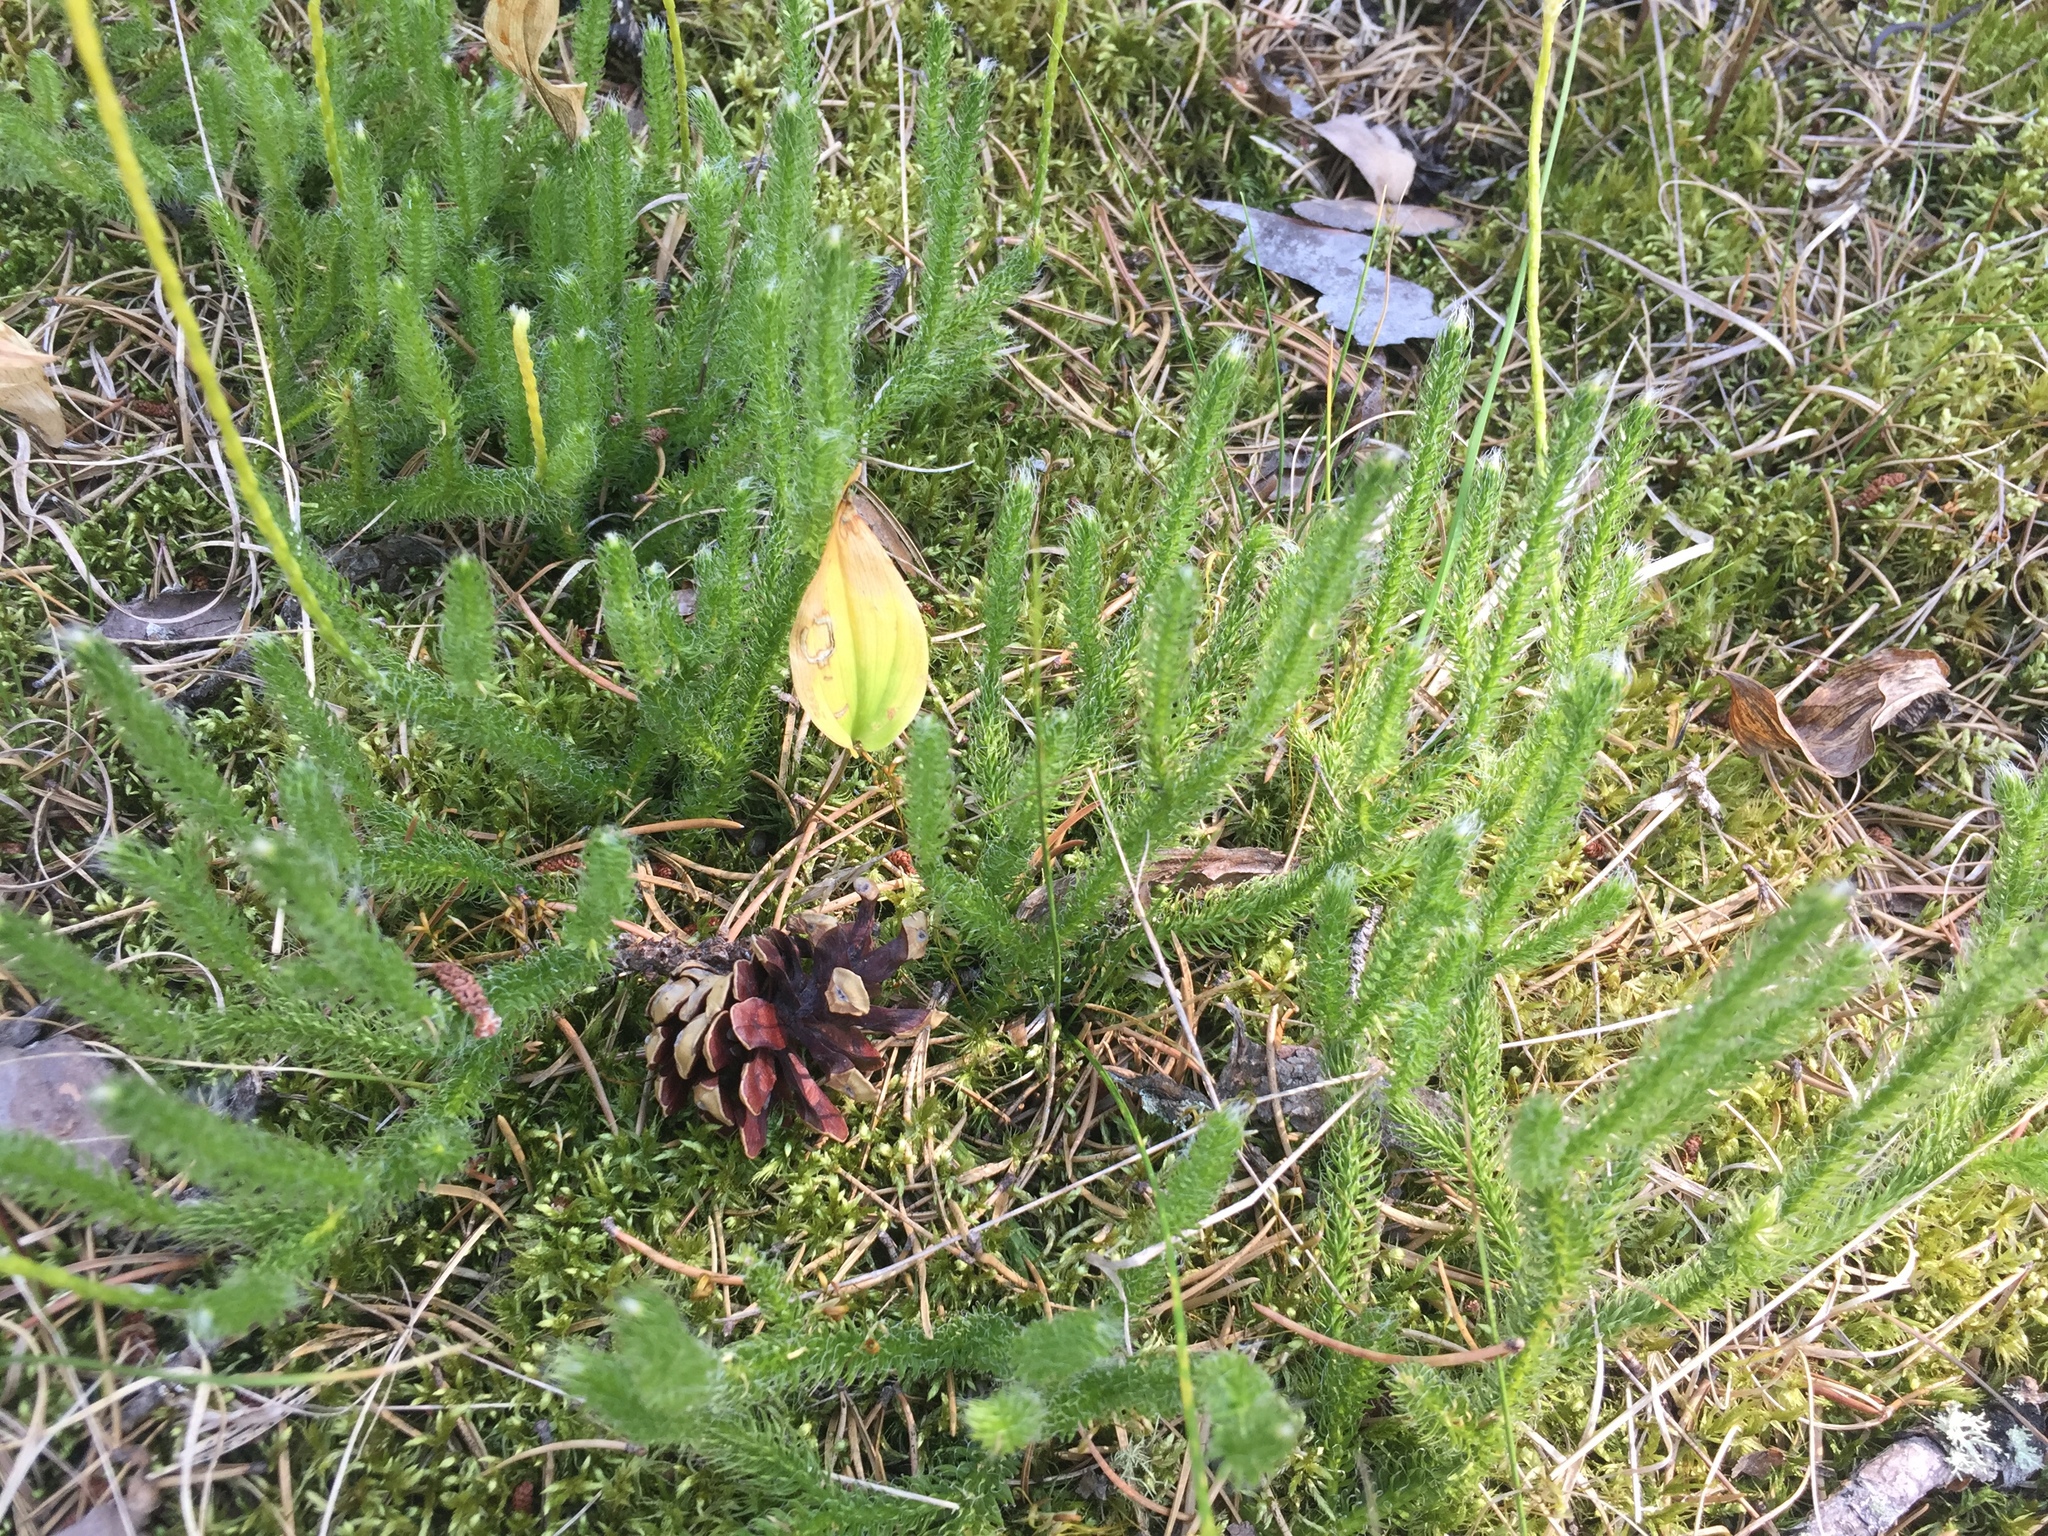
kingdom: Plantae
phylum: Tracheophyta
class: Lycopodiopsida
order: Lycopodiales
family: Lycopodiaceae
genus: Lycopodium
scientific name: Lycopodium lagopus
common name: One-cone clubmoss
